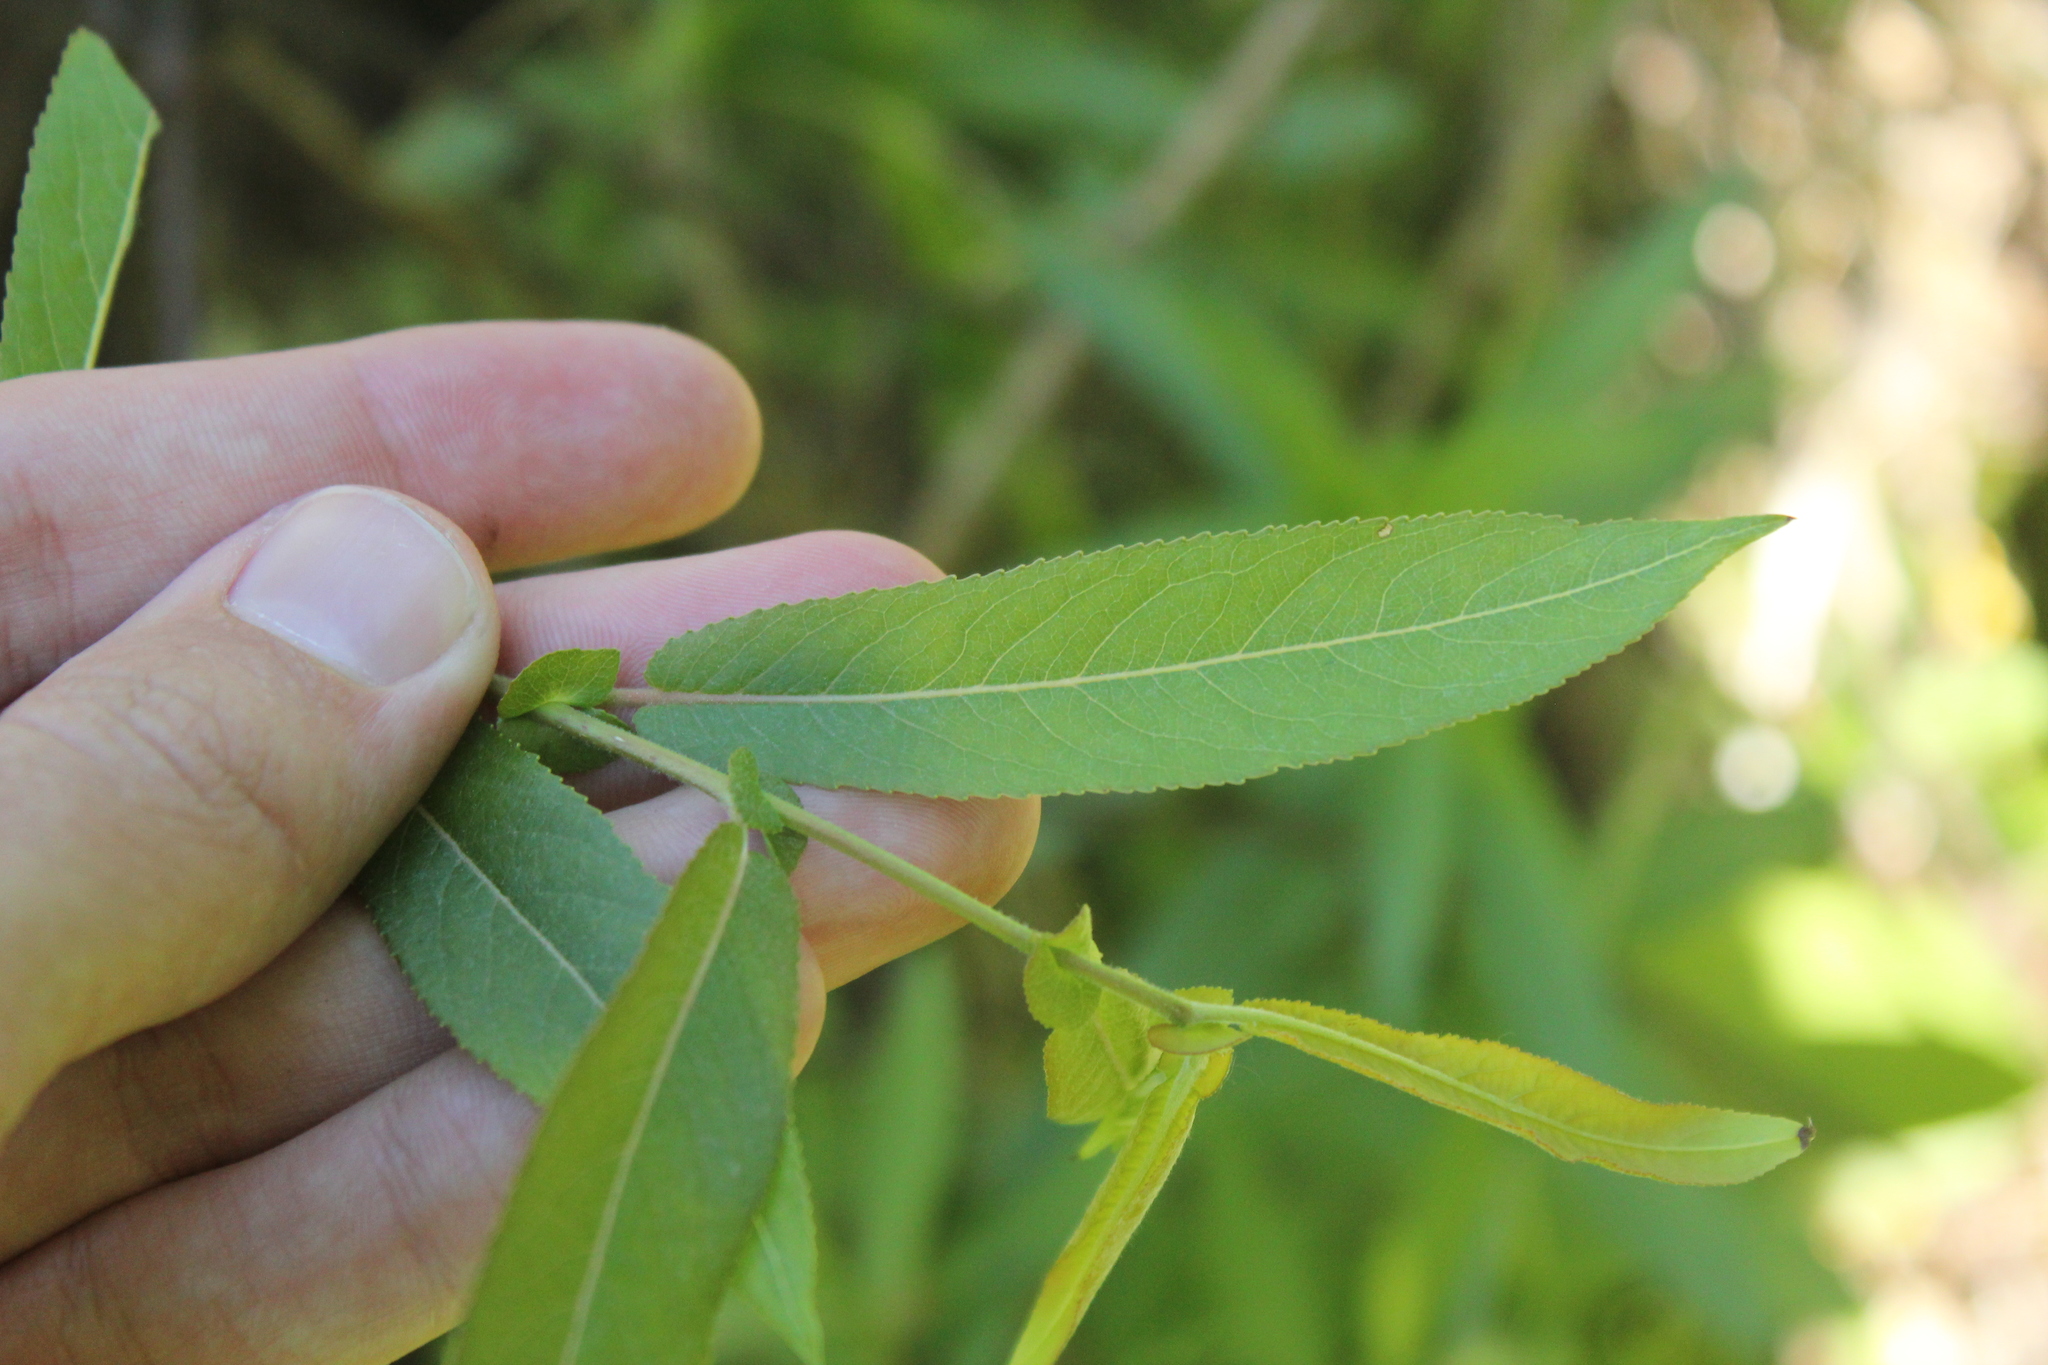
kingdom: Plantae
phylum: Tracheophyta
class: Magnoliopsida
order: Malpighiales
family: Salicaceae
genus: Salix
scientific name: Salix eriocephala
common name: Heart-leaved willow
